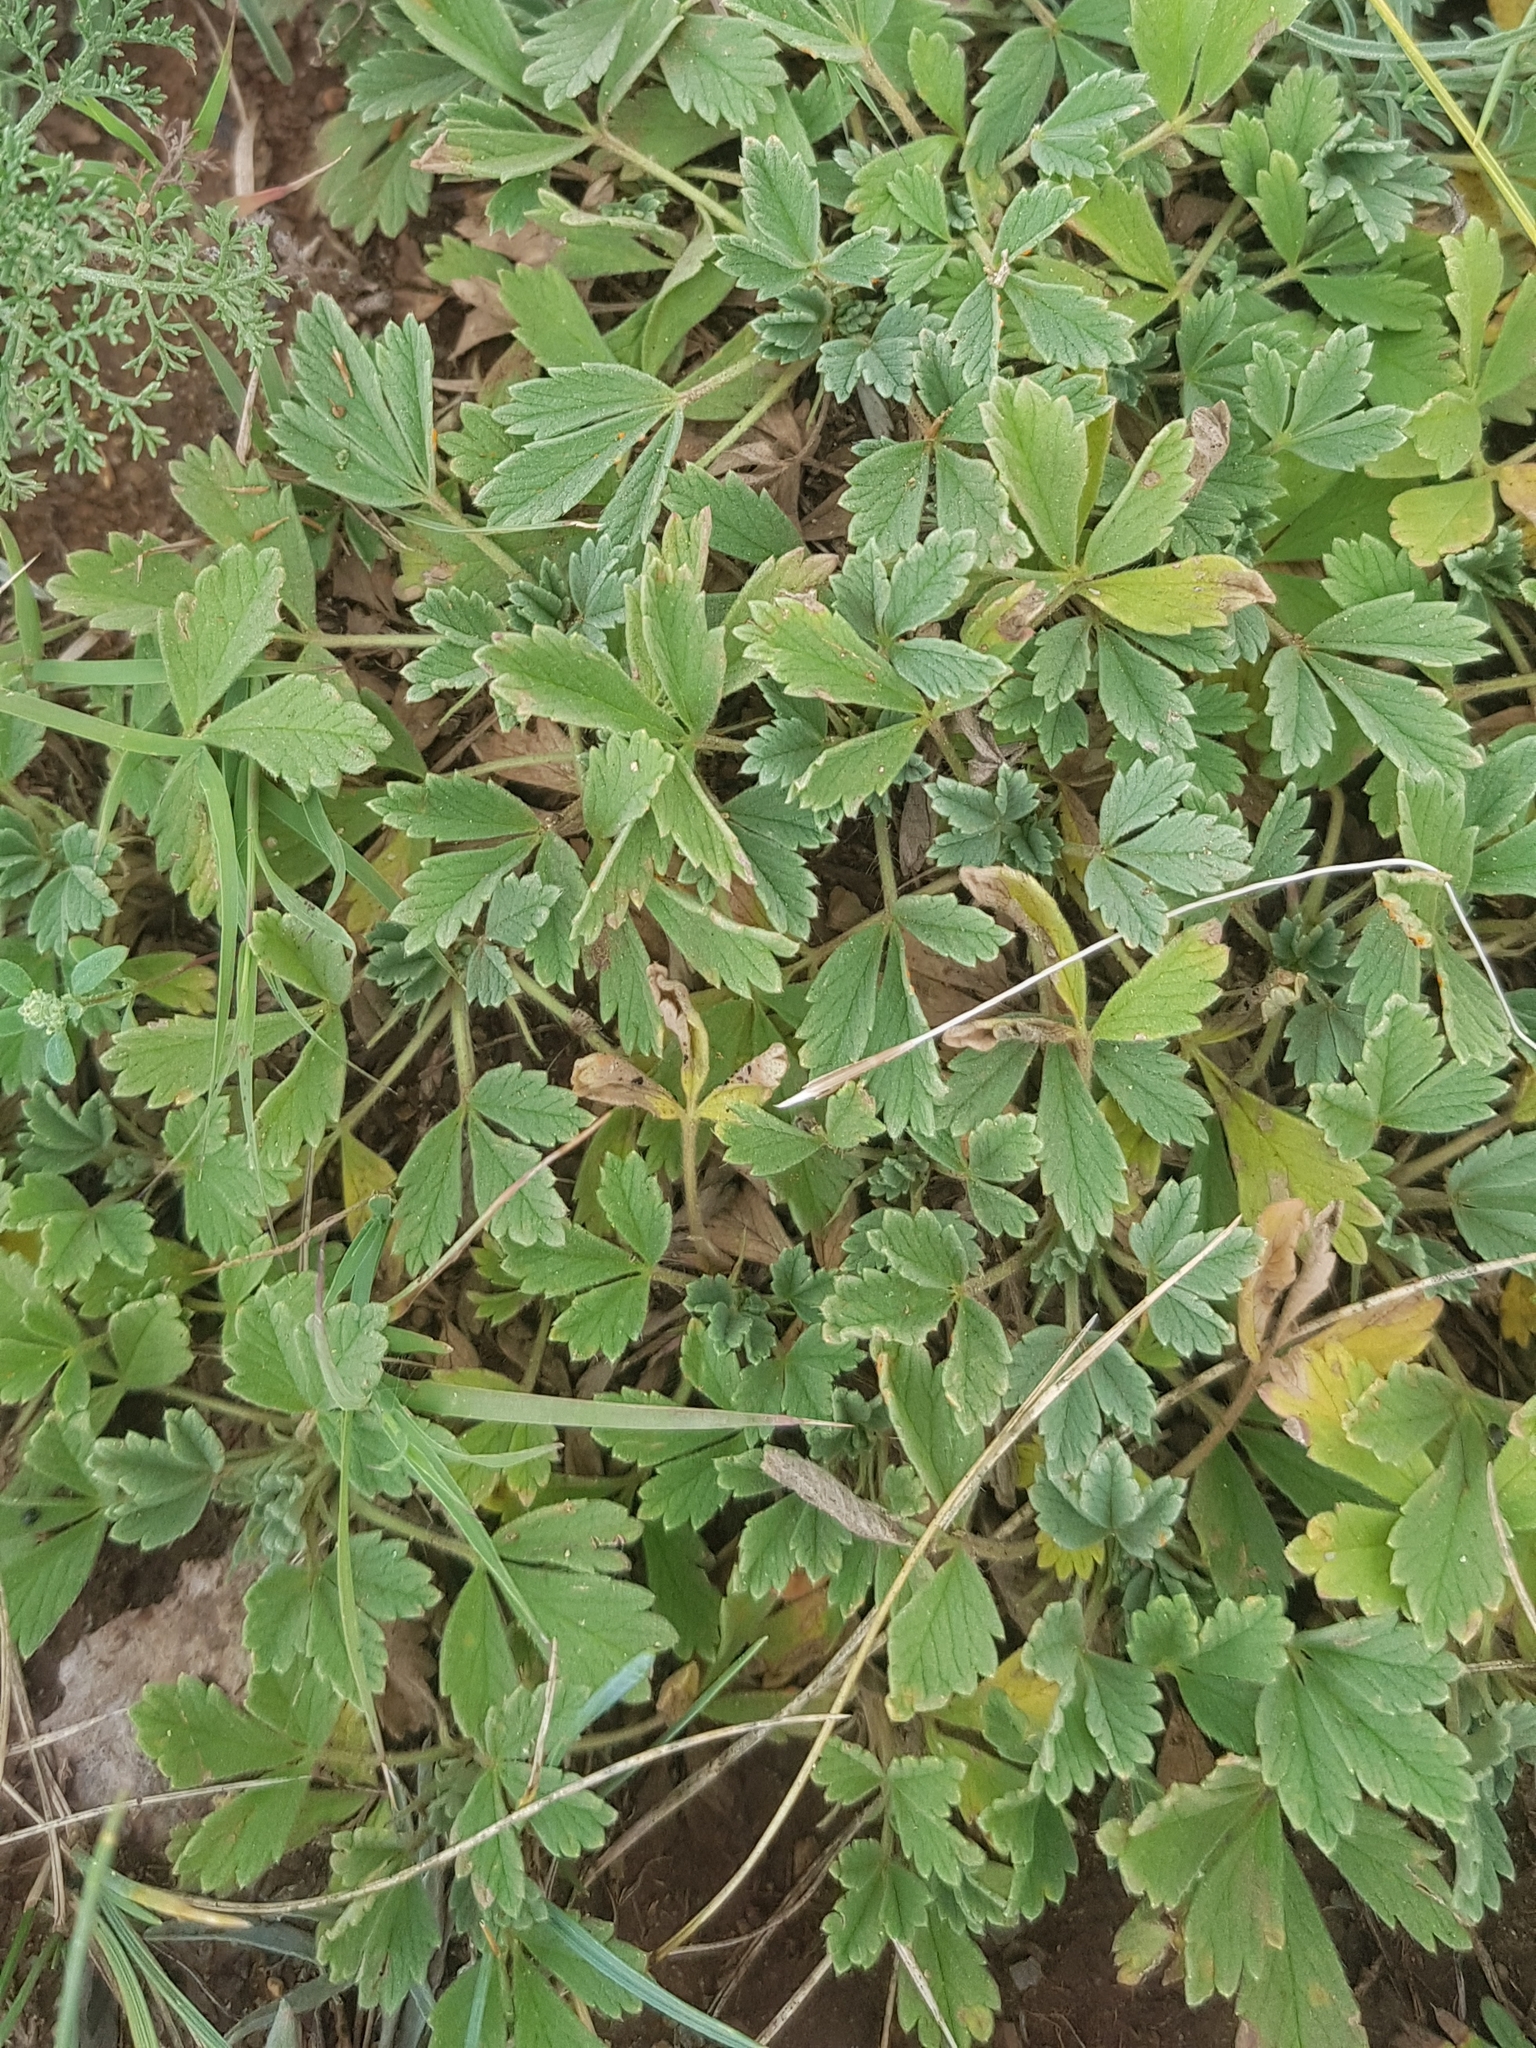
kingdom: Plantae
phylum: Tracheophyta
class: Magnoliopsida
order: Rosales
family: Rosaceae
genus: Potentilla
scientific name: Potentilla acaulis
